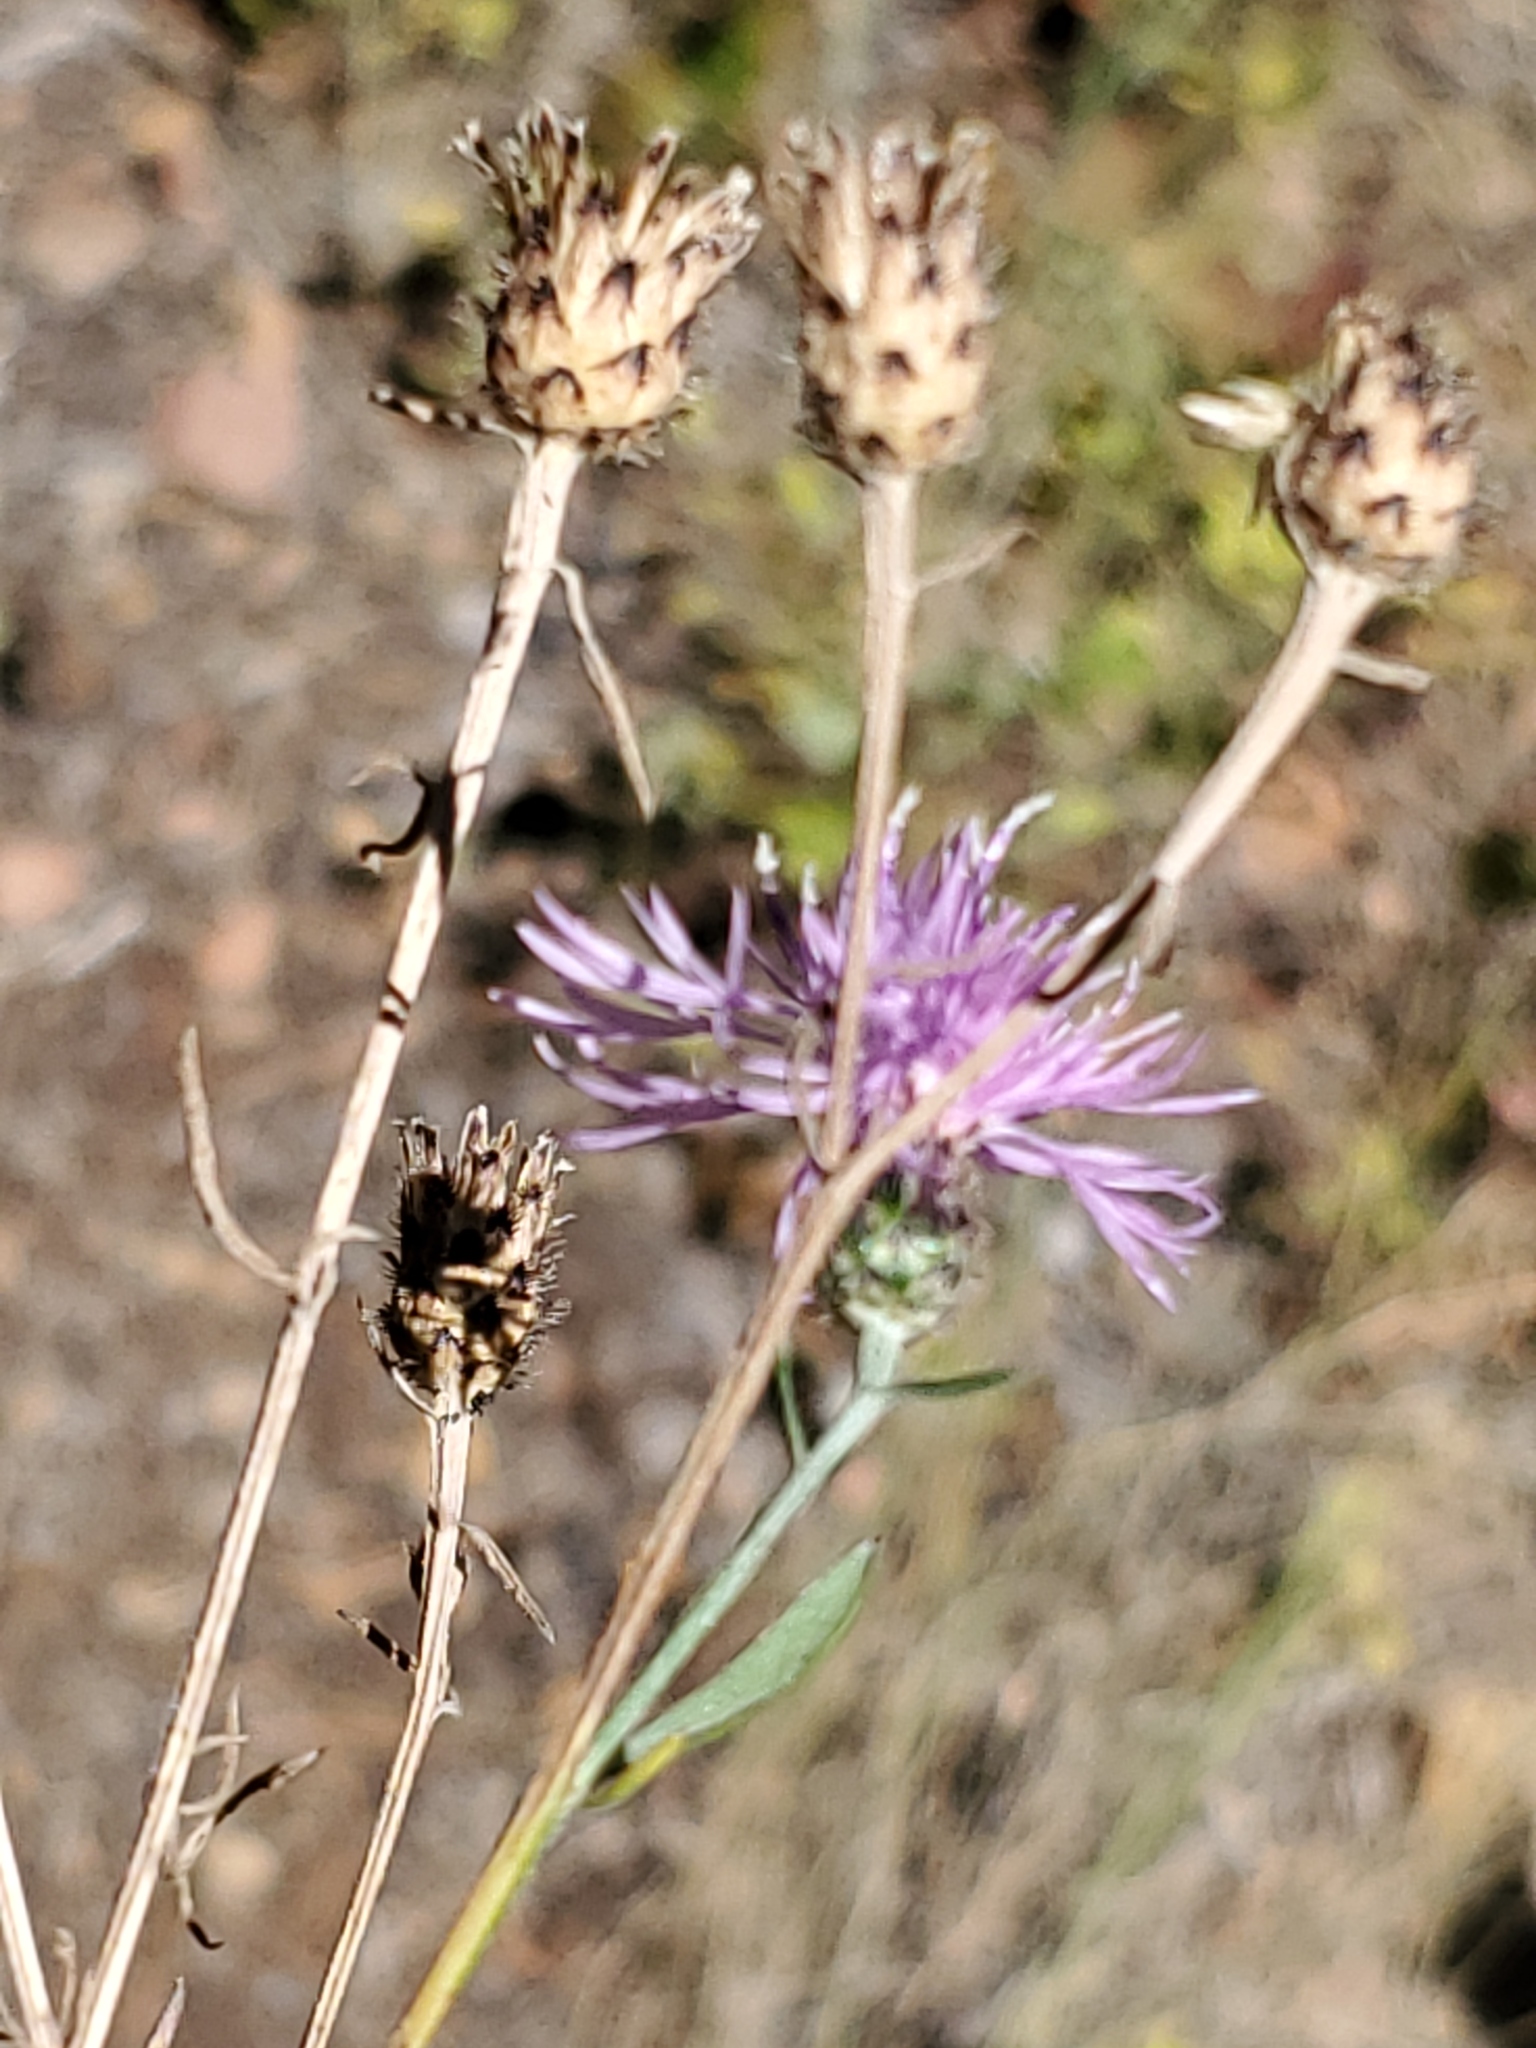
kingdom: Plantae
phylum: Tracheophyta
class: Magnoliopsida
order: Asterales
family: Asteraceae
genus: Centaurea
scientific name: Centaurea stoebe
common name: Spotted knapweed
